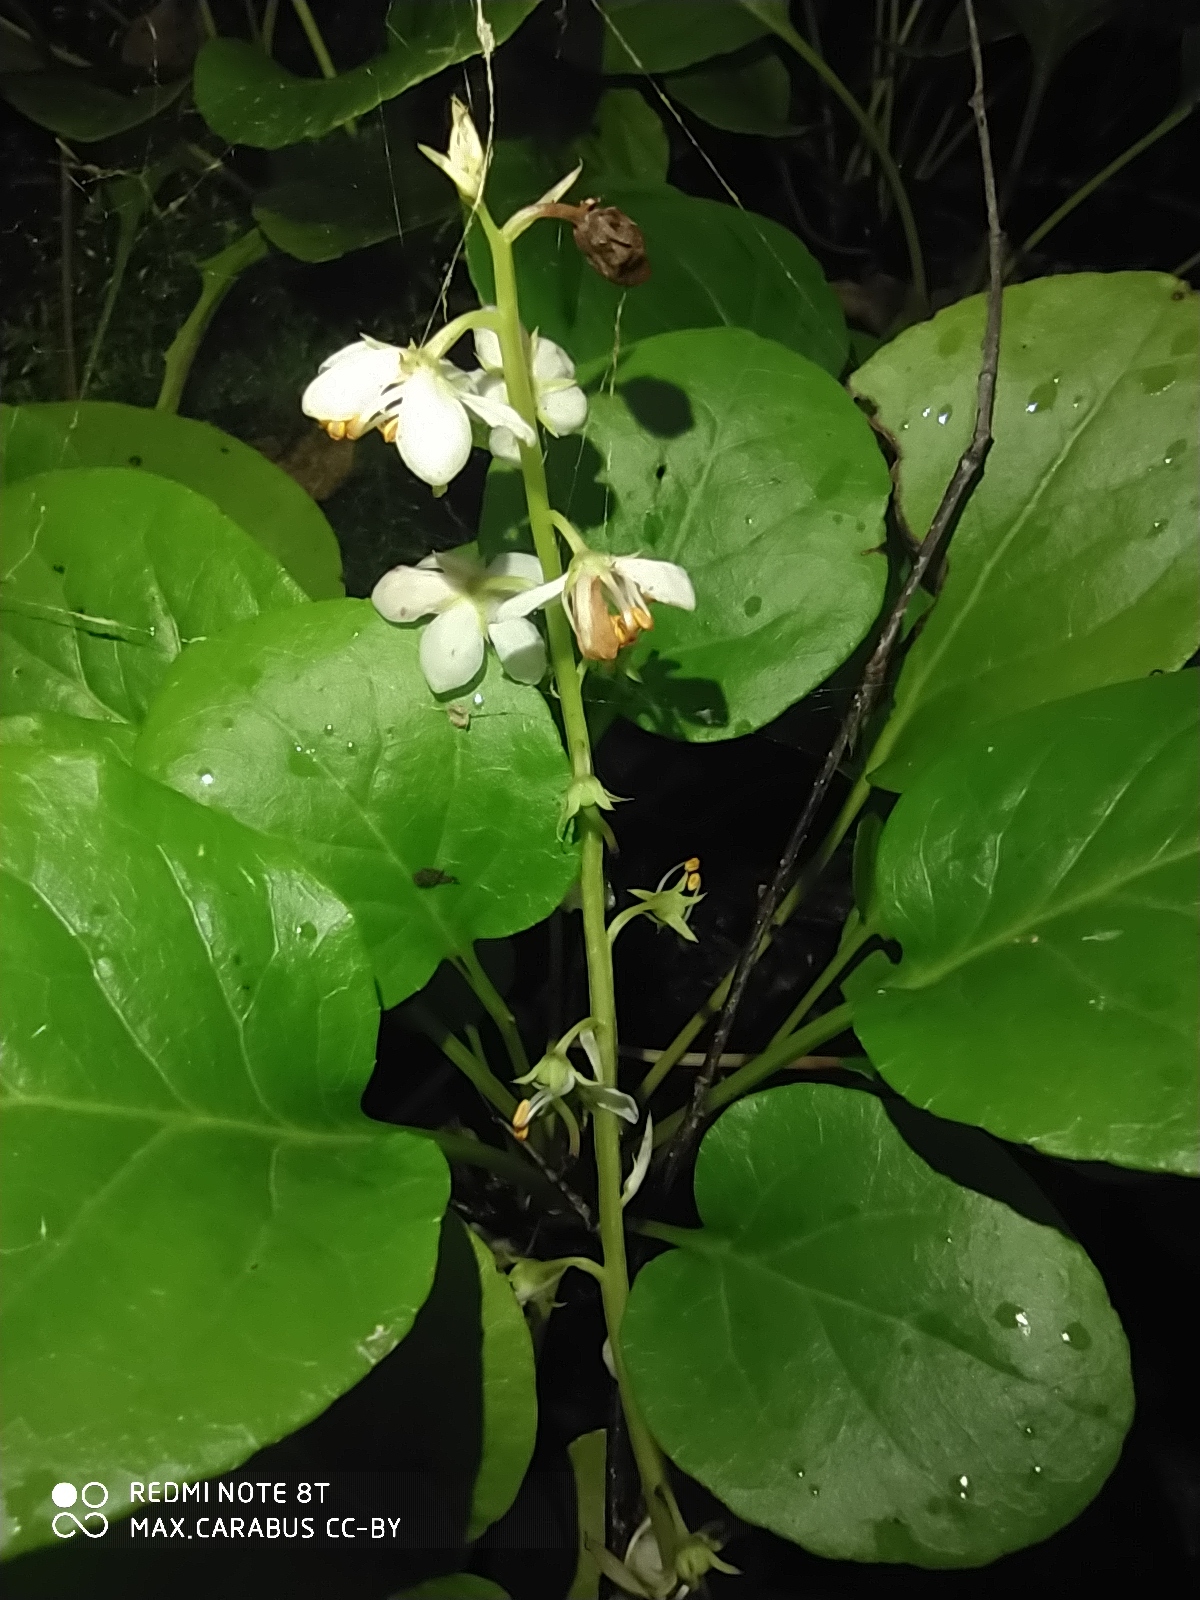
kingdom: Plantae
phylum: Tracheophyta
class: Magnoliopsida
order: Ericales
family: Ericaceae
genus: Pyrola
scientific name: Pyrola rotundifolia
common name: Round-leaved wintergreen
